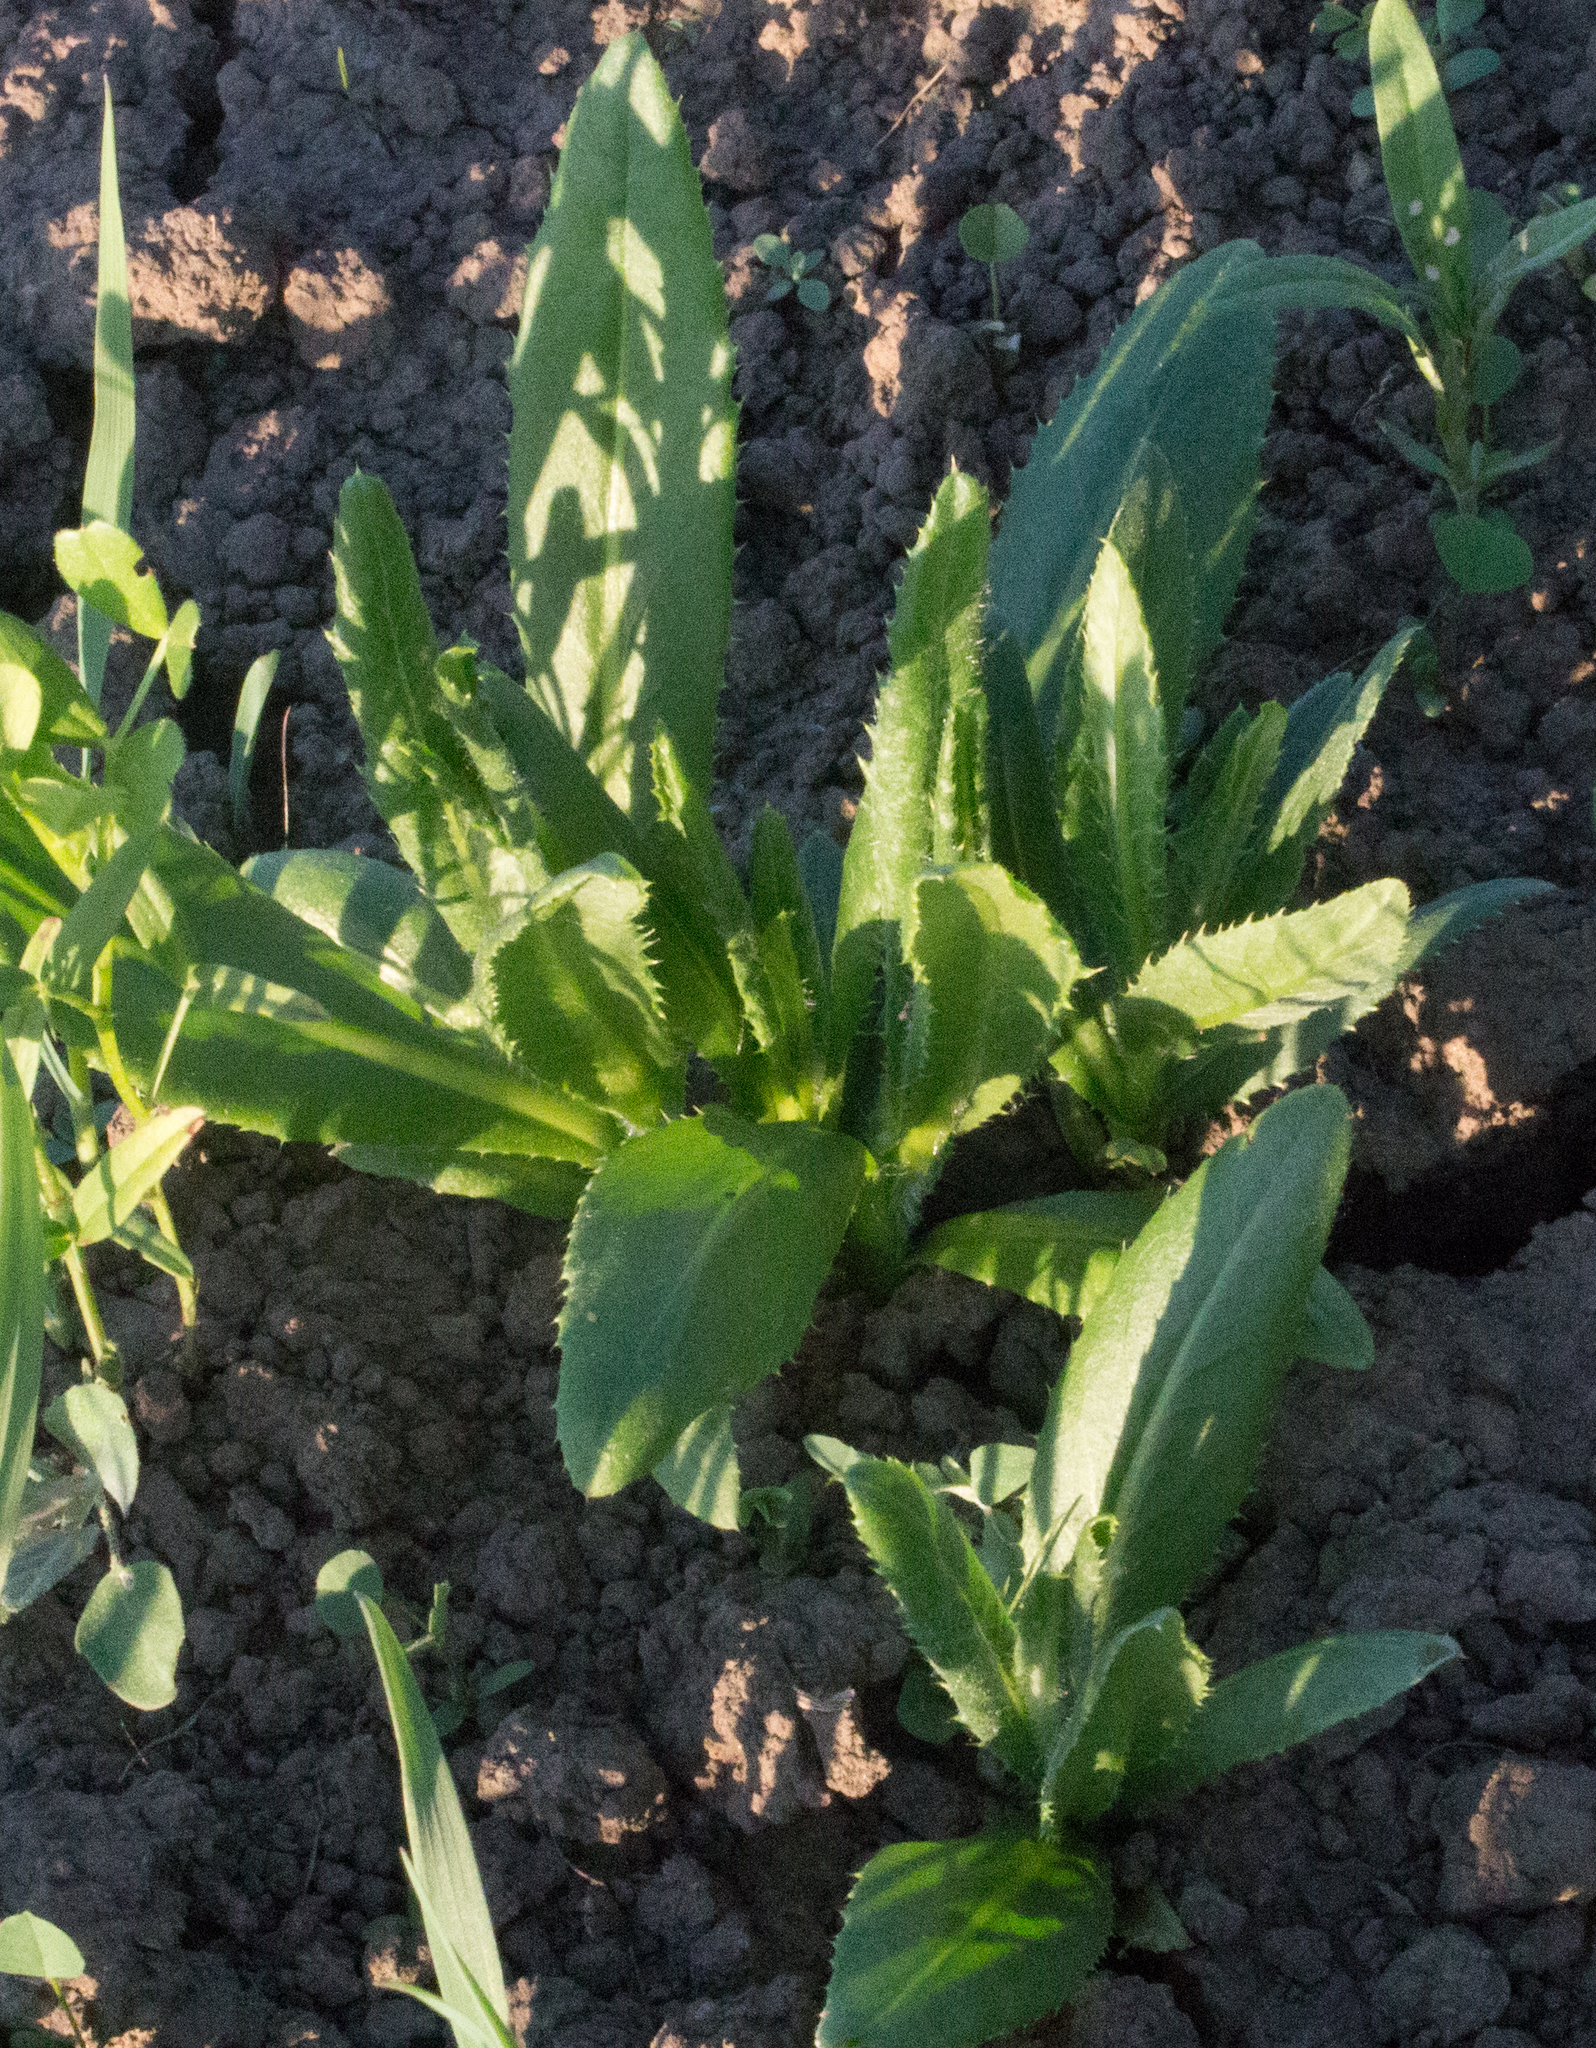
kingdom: Plantae
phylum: Tracheophyta
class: Magnoliopsida
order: Asterales
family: Asteraceae
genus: Cirsium
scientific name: Cirsium arvense
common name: Creeping thistle
